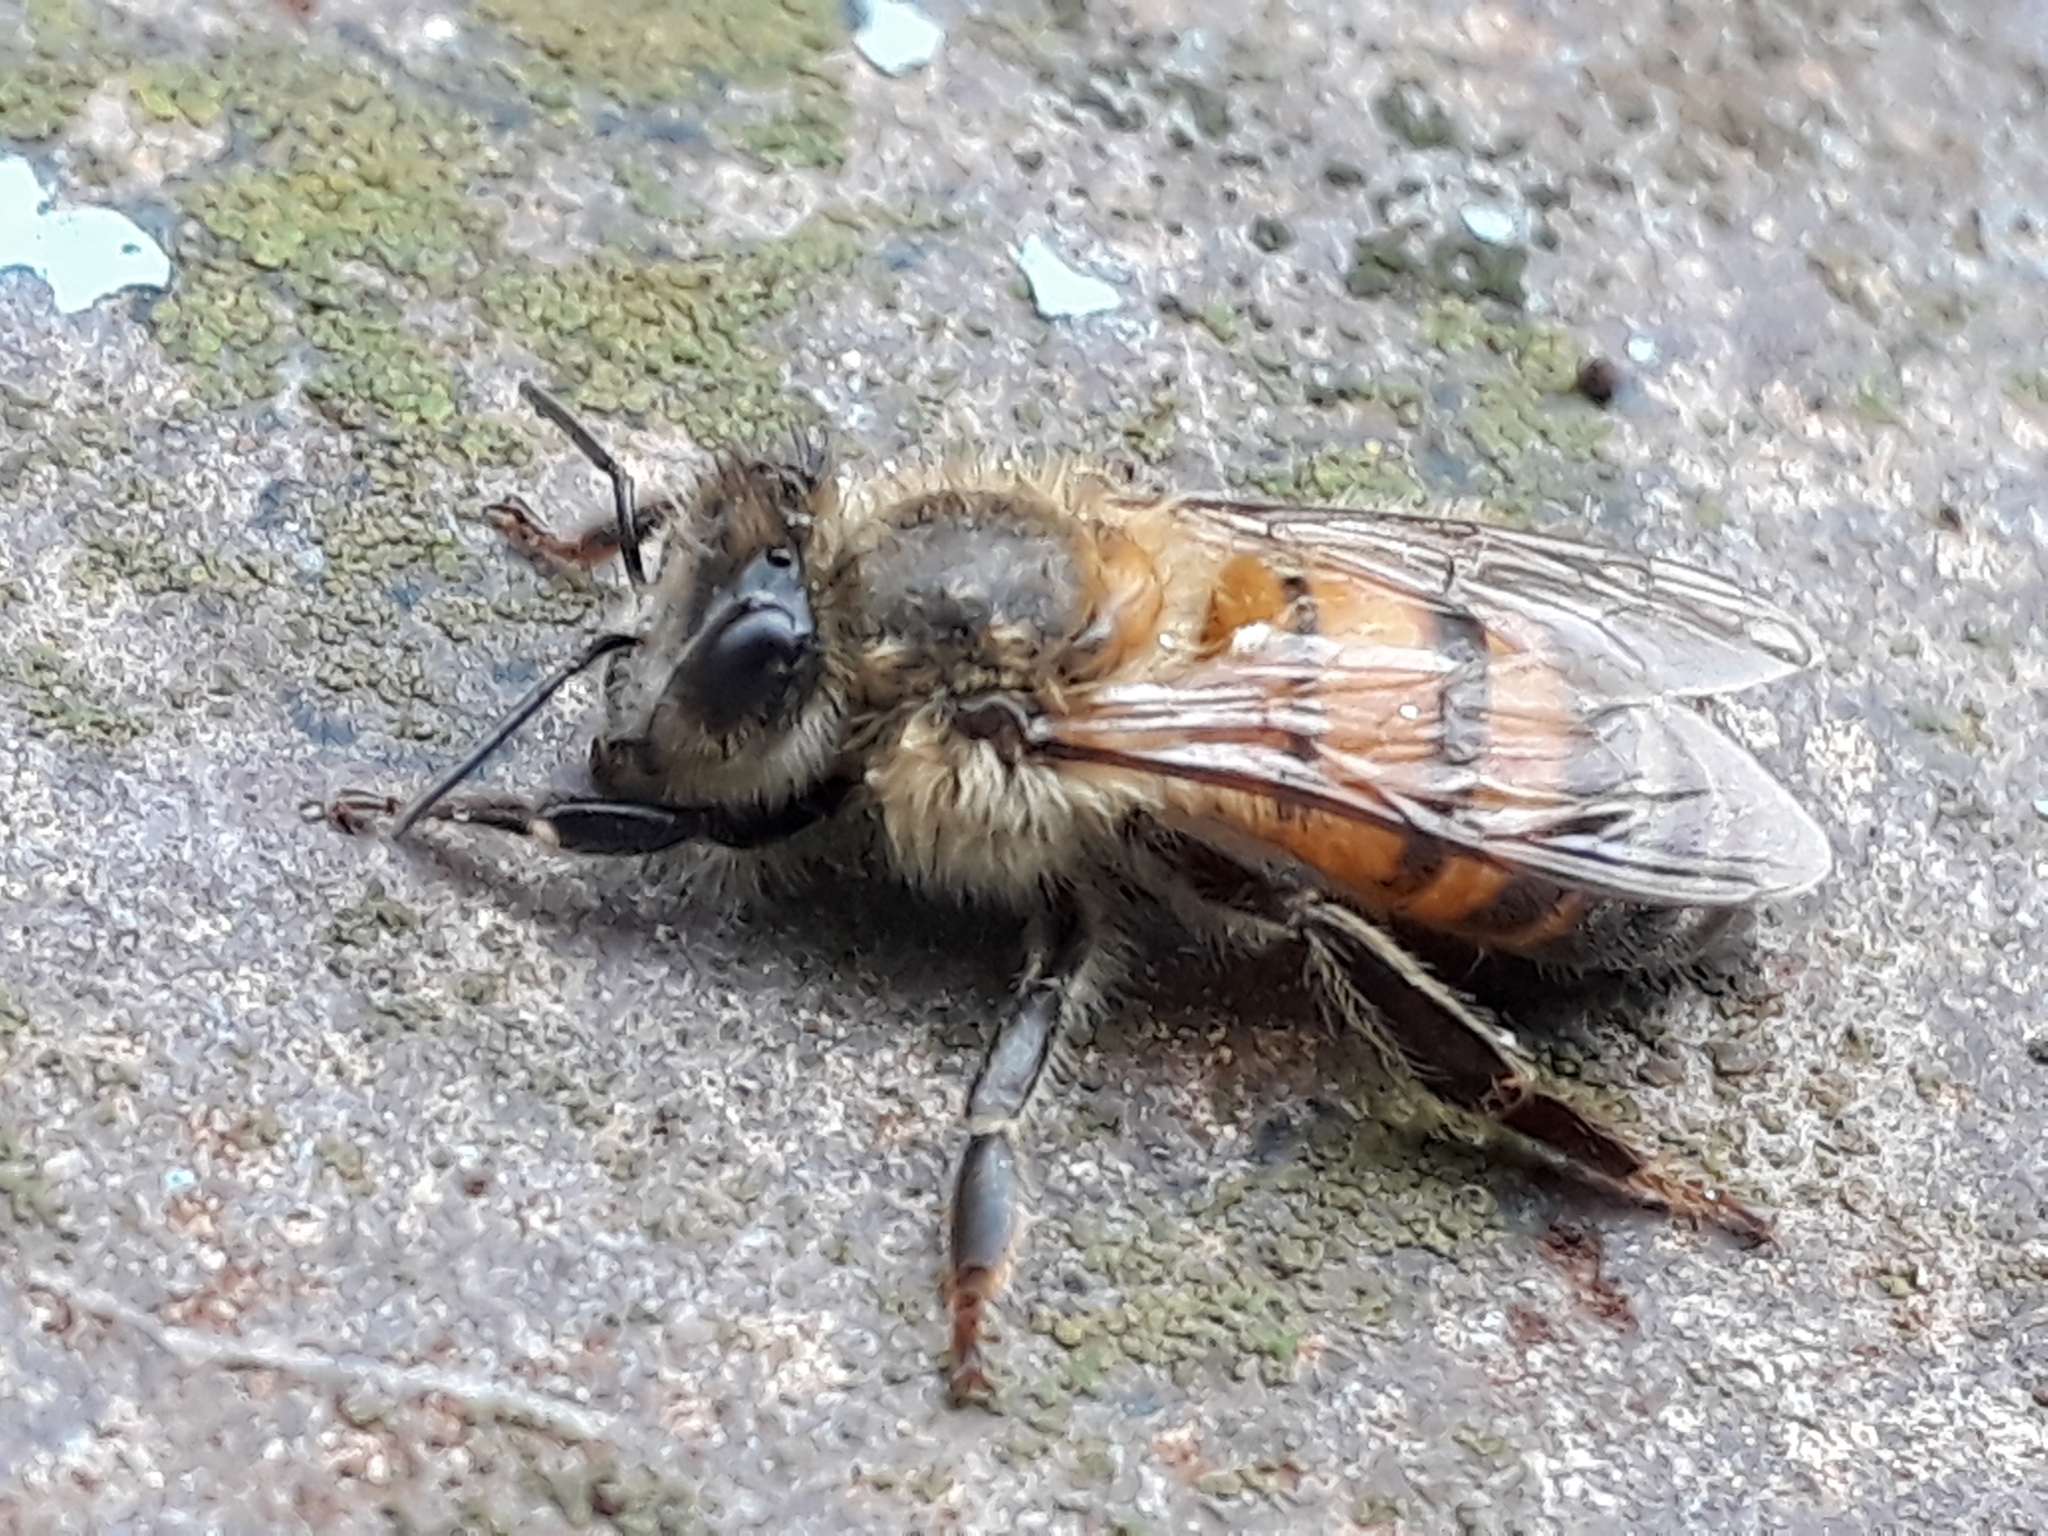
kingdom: Animalia
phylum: Arthropoda
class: Insecta
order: Hymenoptera
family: Apidae
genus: Apis
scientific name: Apis mellifera
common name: Honey bee
